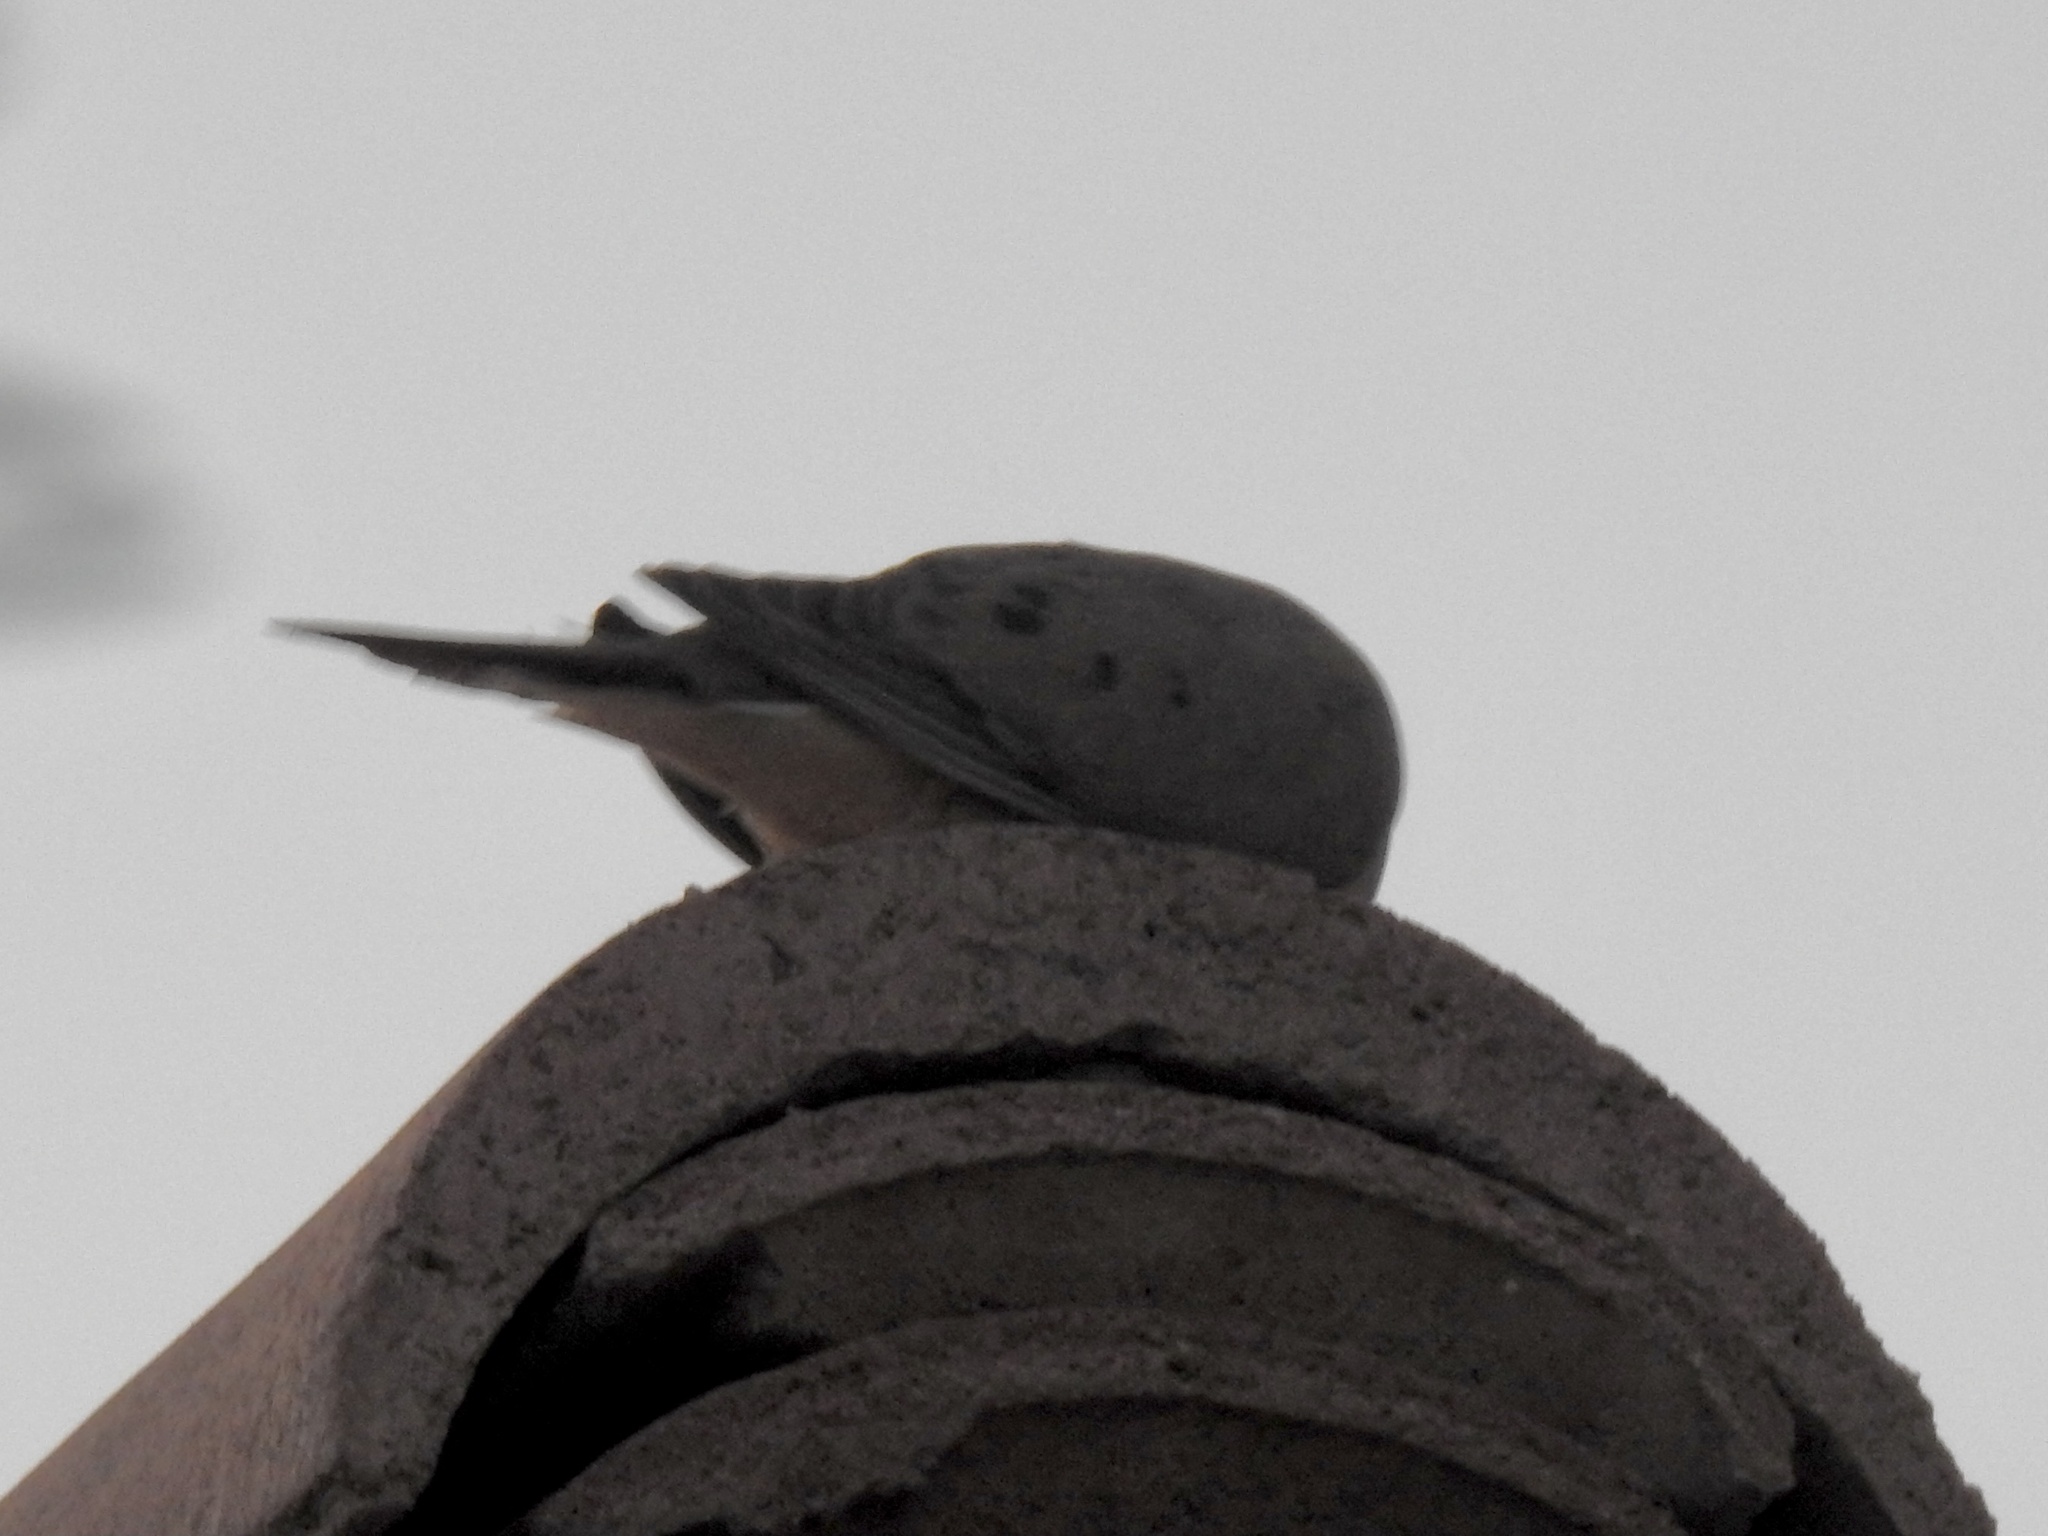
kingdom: Animalia
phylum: Chordata
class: Aves
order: Columbiformes
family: Columbidae
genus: Zenaida
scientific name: Zenaida macroura
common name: Mourning dove
